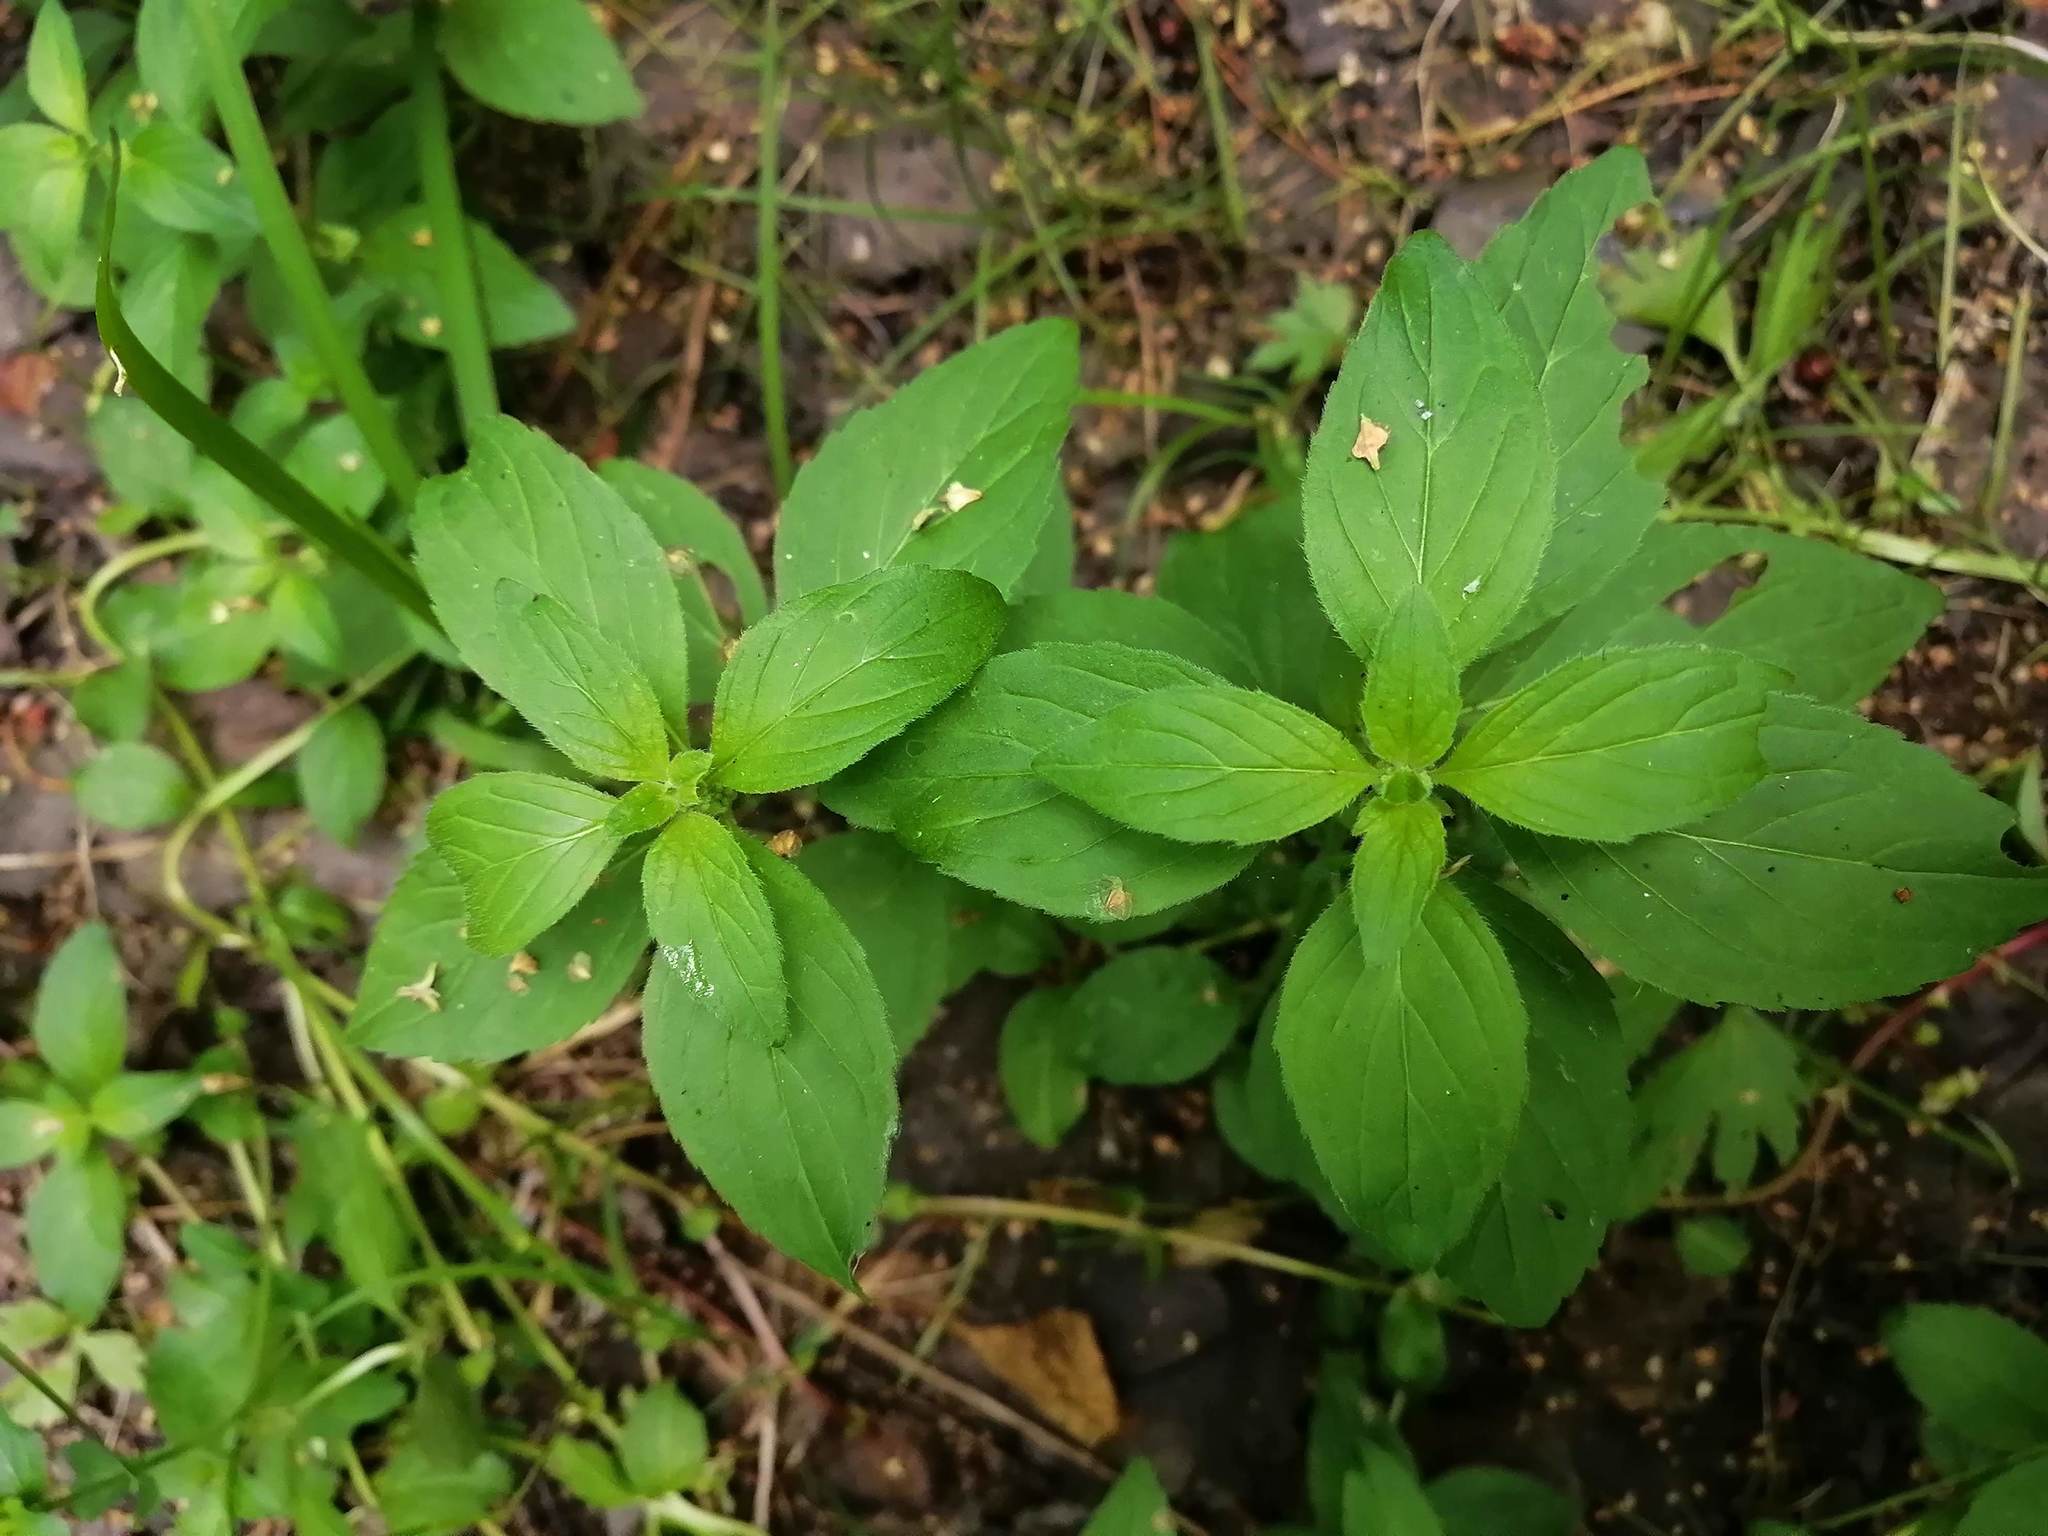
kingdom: Plantae
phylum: Tracheophyta
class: Magnoliopsida
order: Lamiales
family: Lamiaceae
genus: Mentha
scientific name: Mentha arvensis
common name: Corn mint
